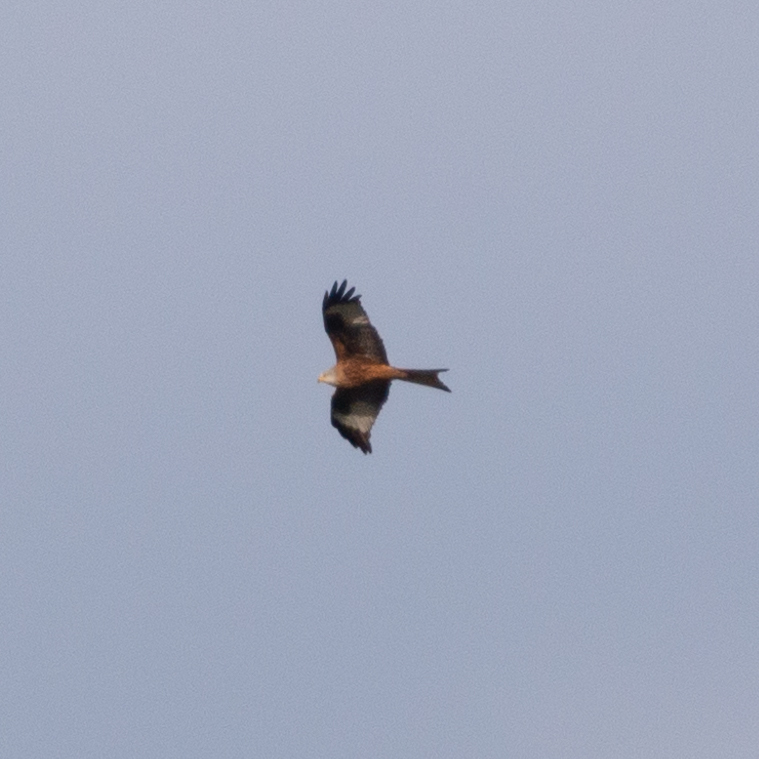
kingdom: Animalia
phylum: Chordata
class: Aves
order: Accipitriformes
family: Accipitridae
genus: Milvus
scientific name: Milvus milvus
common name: Red kite
